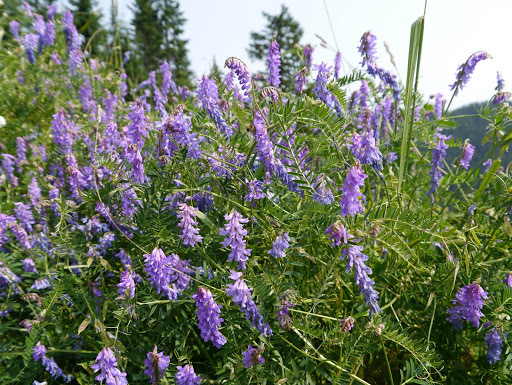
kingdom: Plantae
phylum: Tracheophyta
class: Magnoliopsida
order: Fabales
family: Fabaceae
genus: Vicia
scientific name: Vicia cracca
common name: Bird vetch
